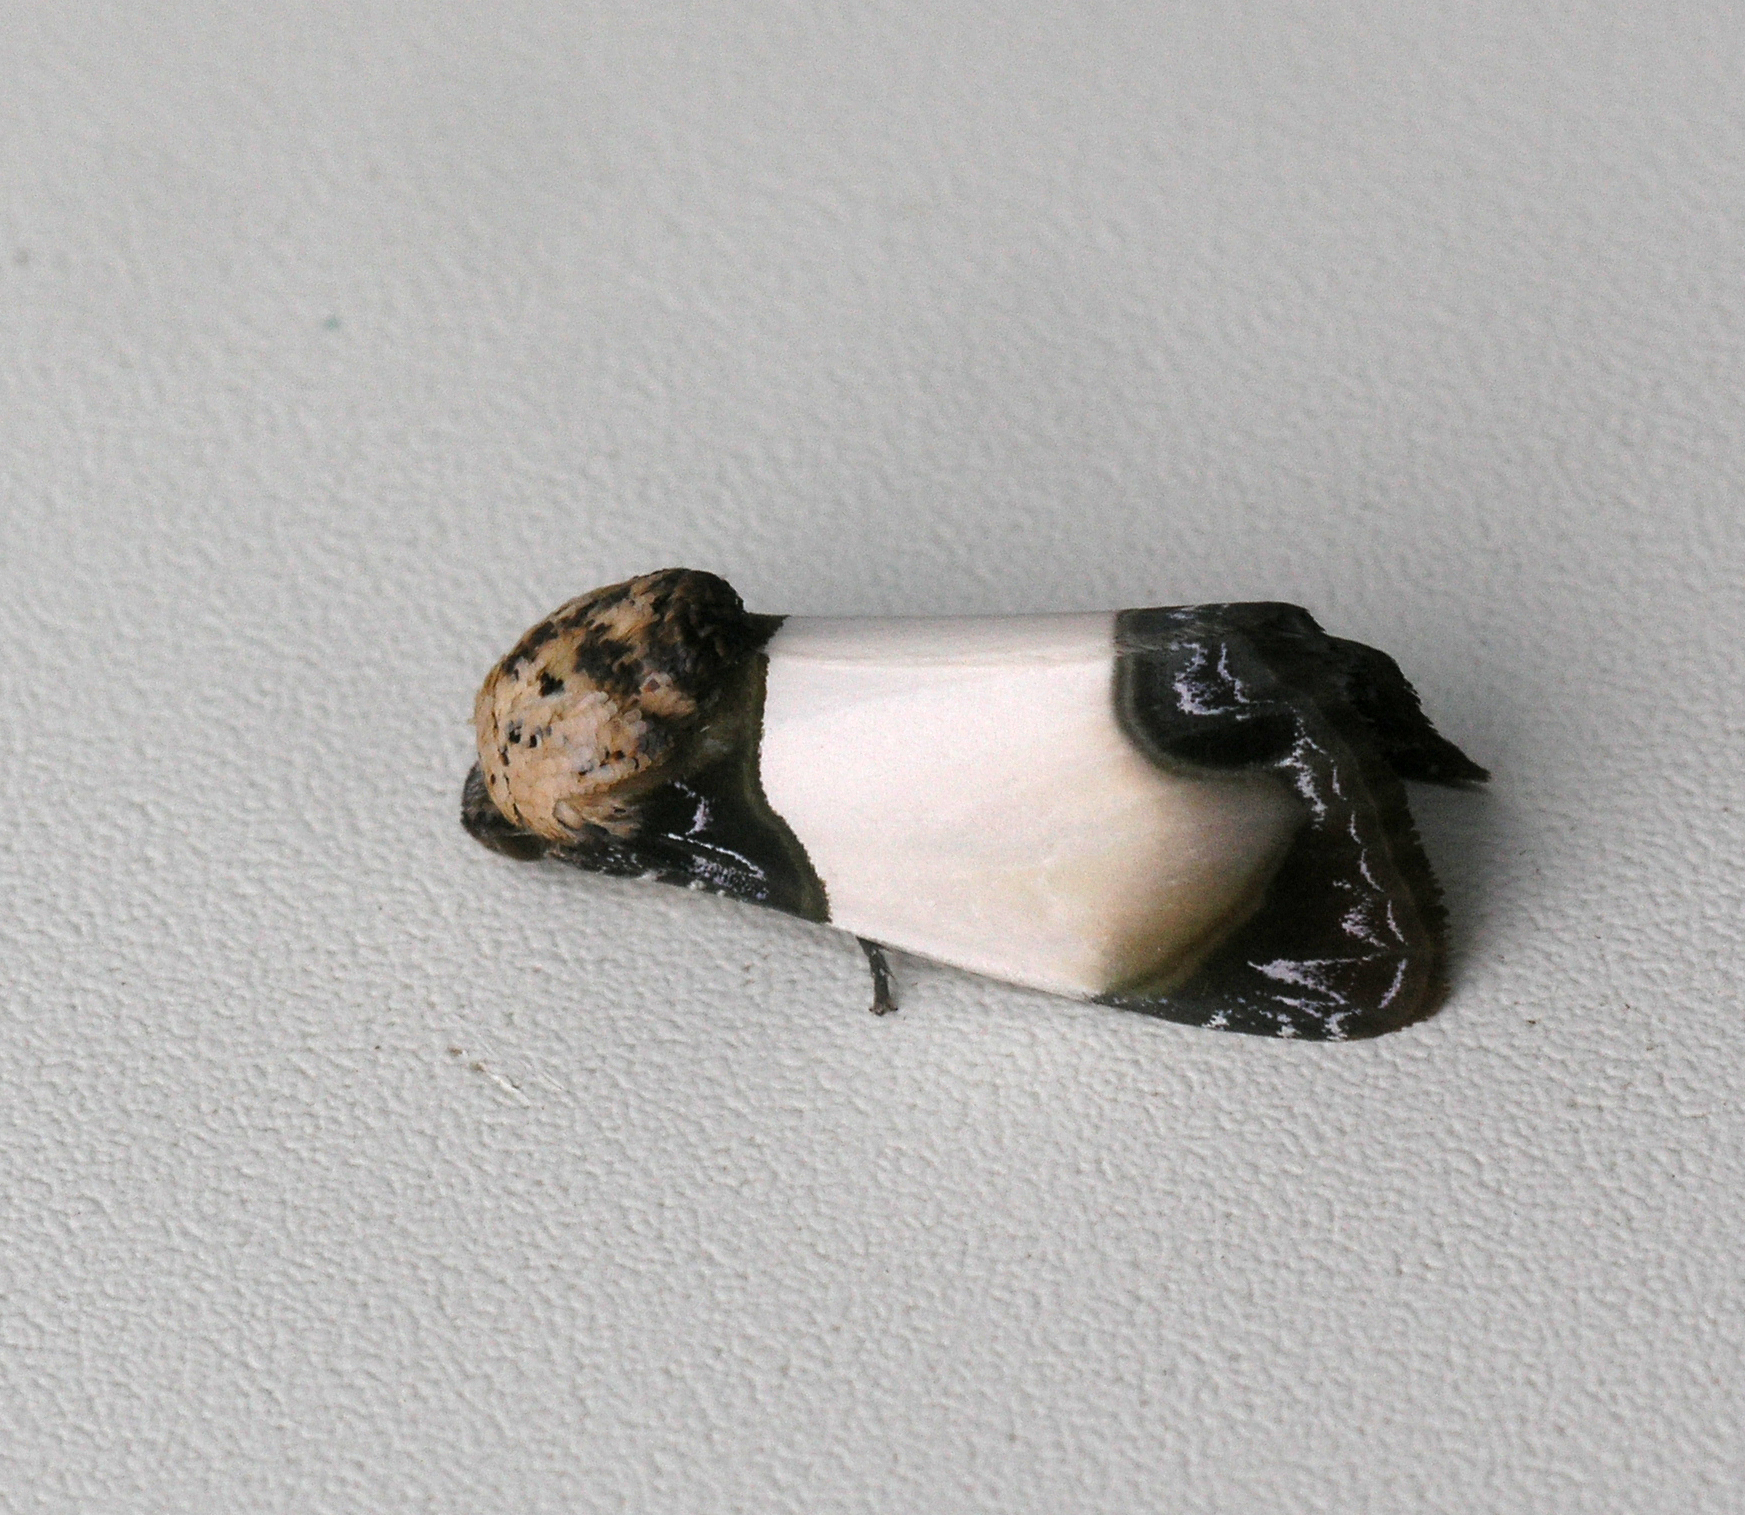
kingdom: Animalia
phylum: Arthropoda
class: Insecta
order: Lepidoptera
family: Noctuidae
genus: Sinocharis
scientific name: Sinocharis korbae
